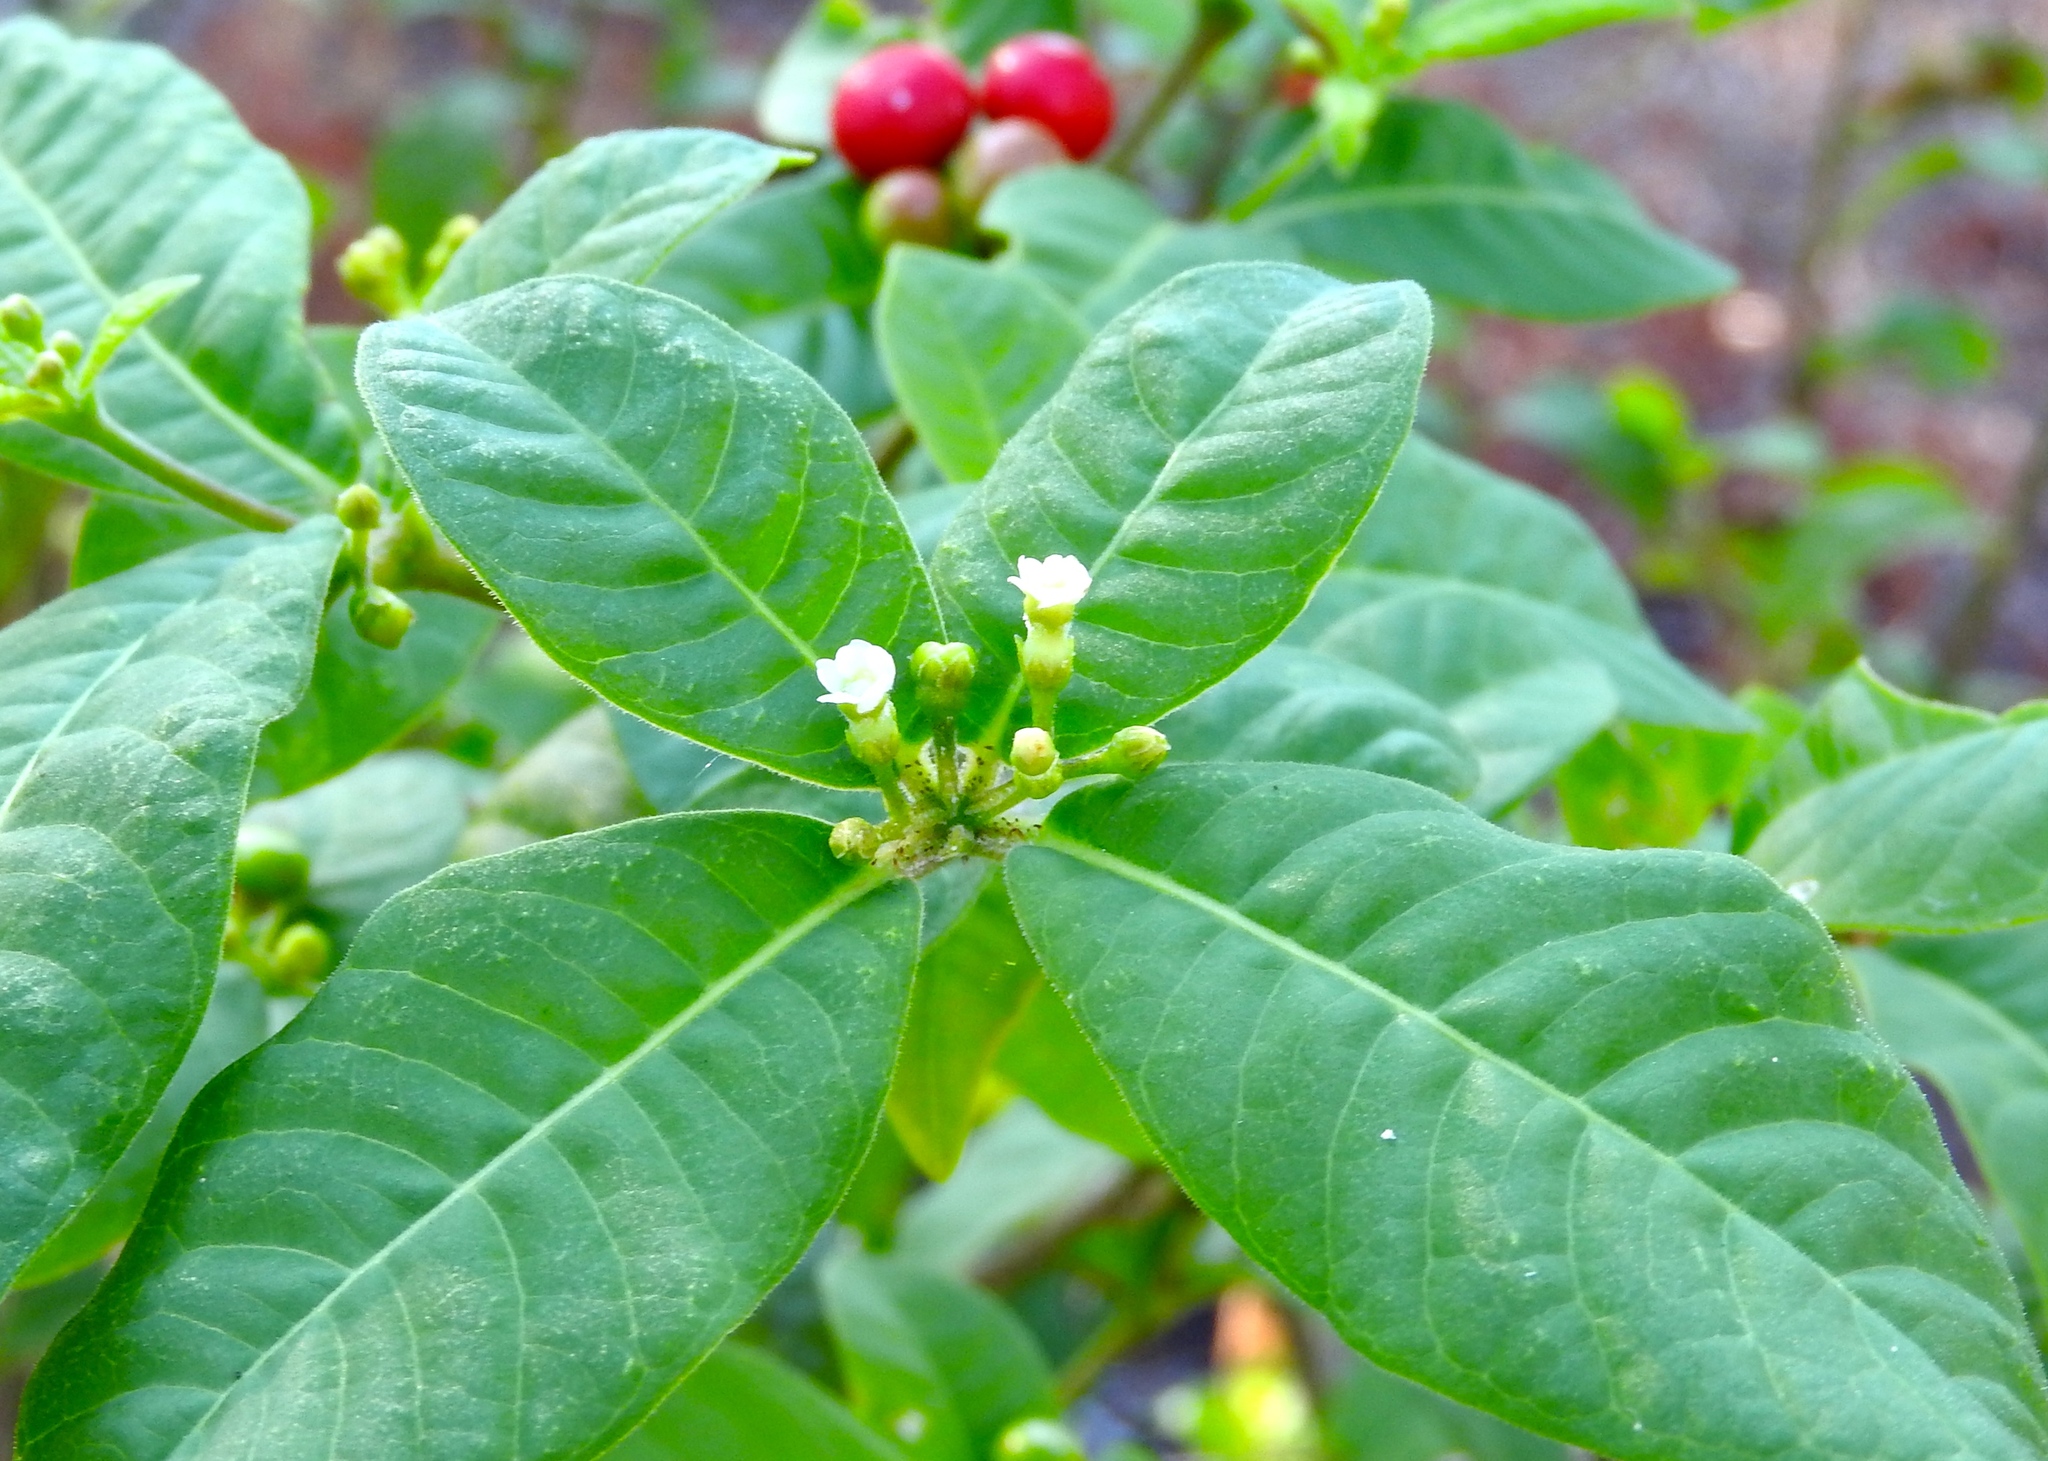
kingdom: Plantae
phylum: Tracheophyta
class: Magnoliopsida
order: Gentianales
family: Apocynaceae
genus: Rauvolfia
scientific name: Rauvolfia tetraphylla
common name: Four-leaf devil-pepper
